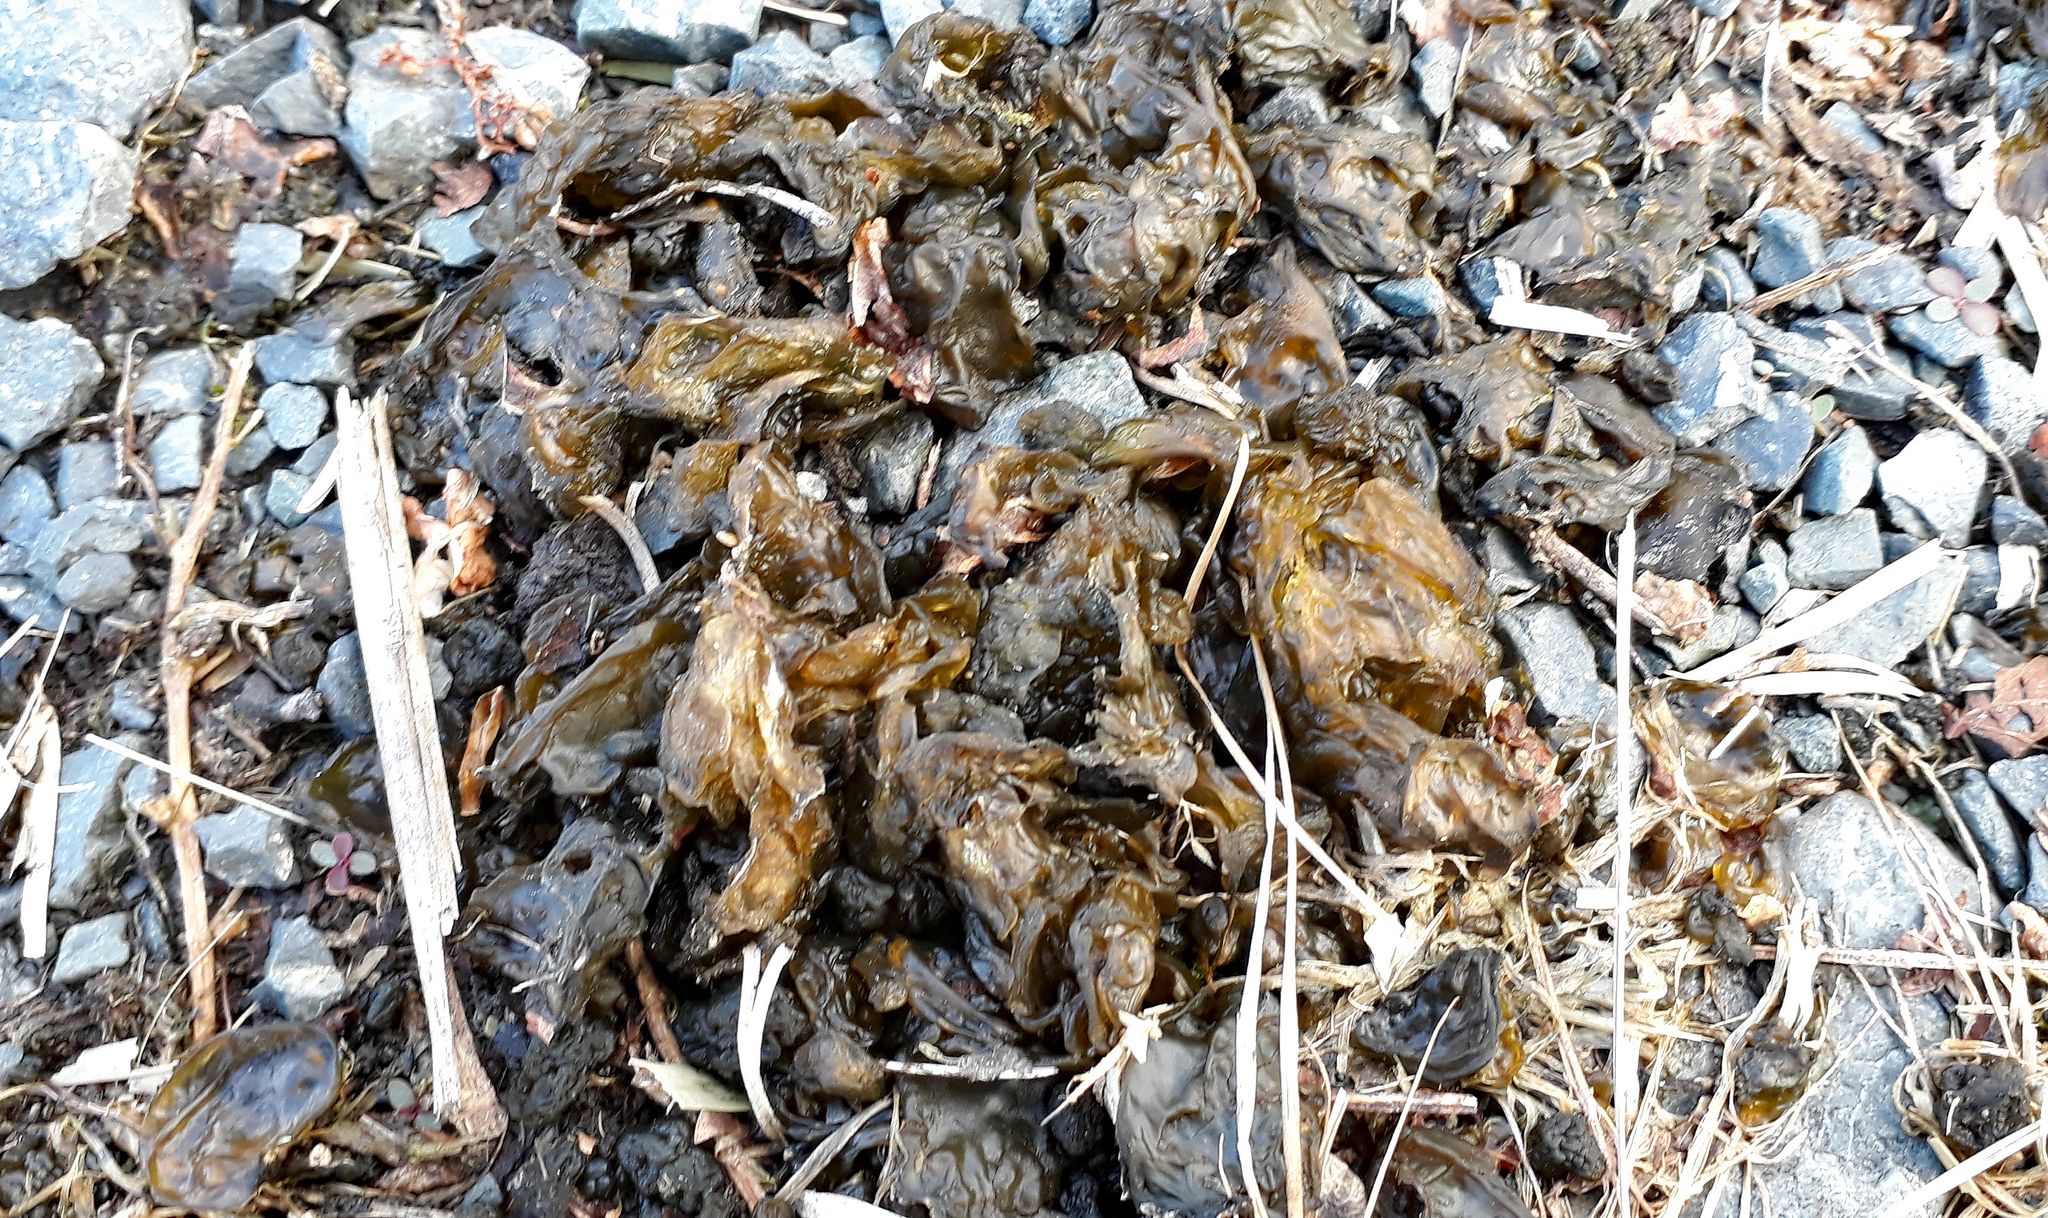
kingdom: Bacteria
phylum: Cyanobacteria
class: Cyanobacteriia
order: Cyanobacteriales
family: Nostocaceae
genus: Nostoc
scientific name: Nostoc commune
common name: Star jelly
